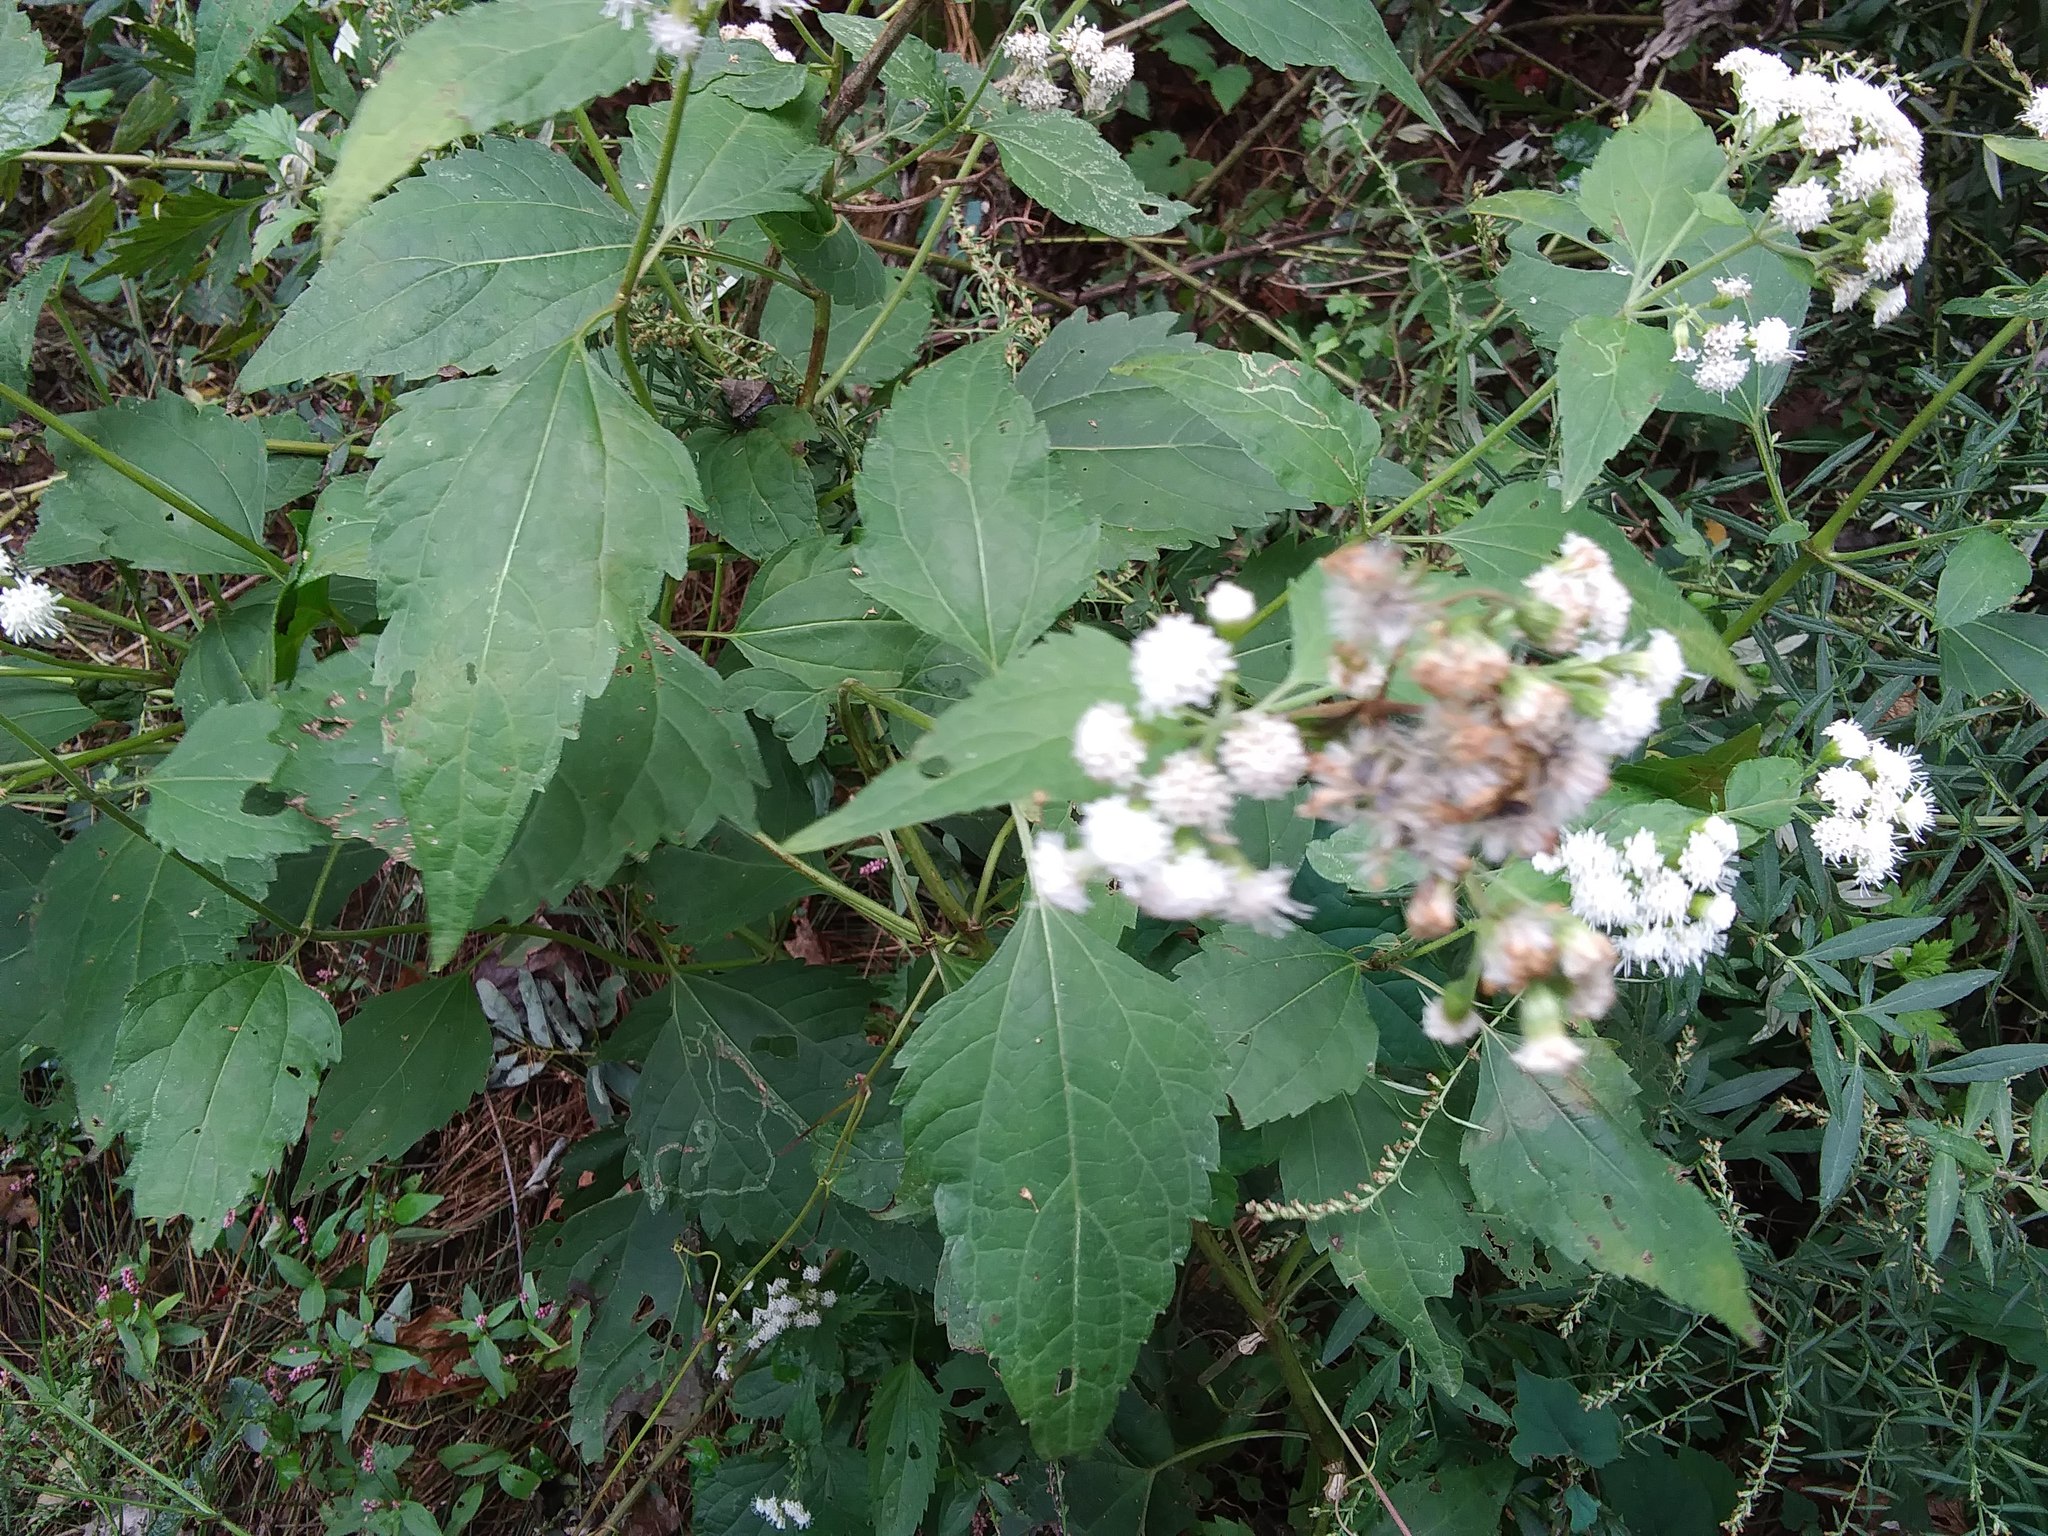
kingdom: Plantae
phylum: Tracheophyta
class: Magnoliopsida
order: Asterales
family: Asteraceae
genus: Ageratina
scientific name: Ageratina altissima
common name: White snakeroot
